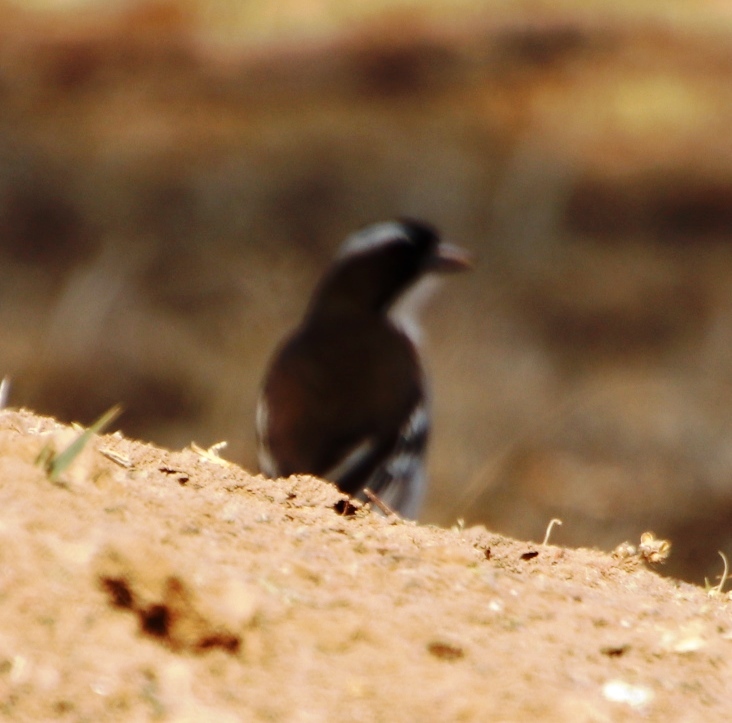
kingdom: Animalia
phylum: Chordata
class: Aves
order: Passeriformes
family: Passeridae
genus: Plocepasser
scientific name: Plocepasser mahali
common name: White-browed sparrow-weaver
